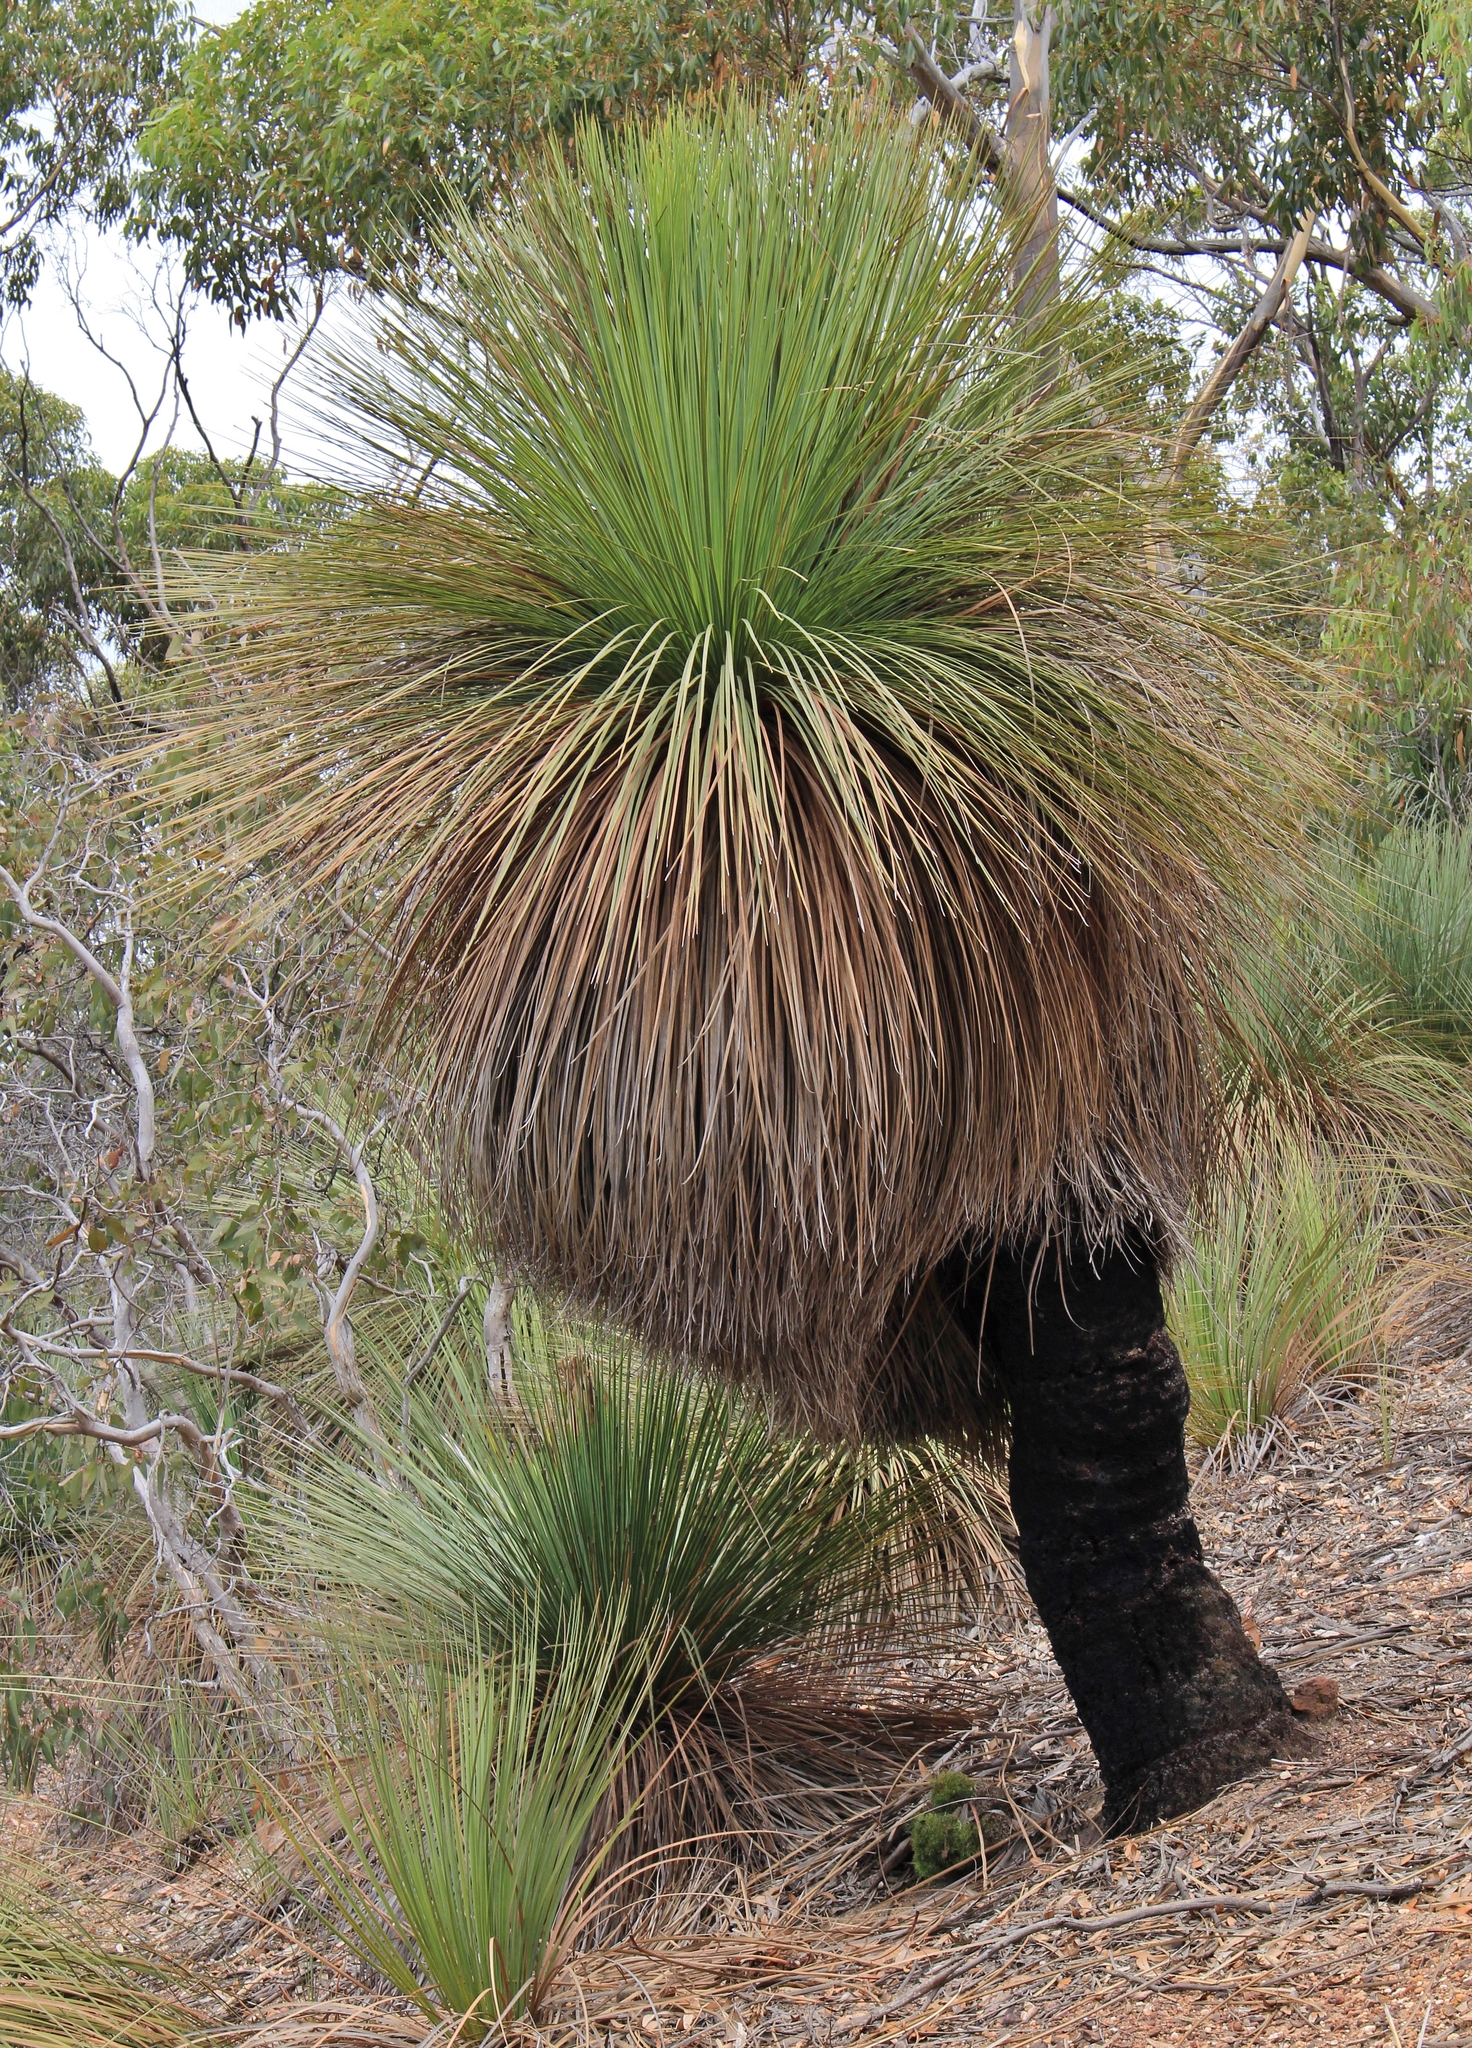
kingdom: Plantae
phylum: Tracheophyta
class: Liliopsida
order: Asparagales
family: Asphodelaceae
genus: Xanthorrhoea
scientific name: Xanthorrhoea semiplana
